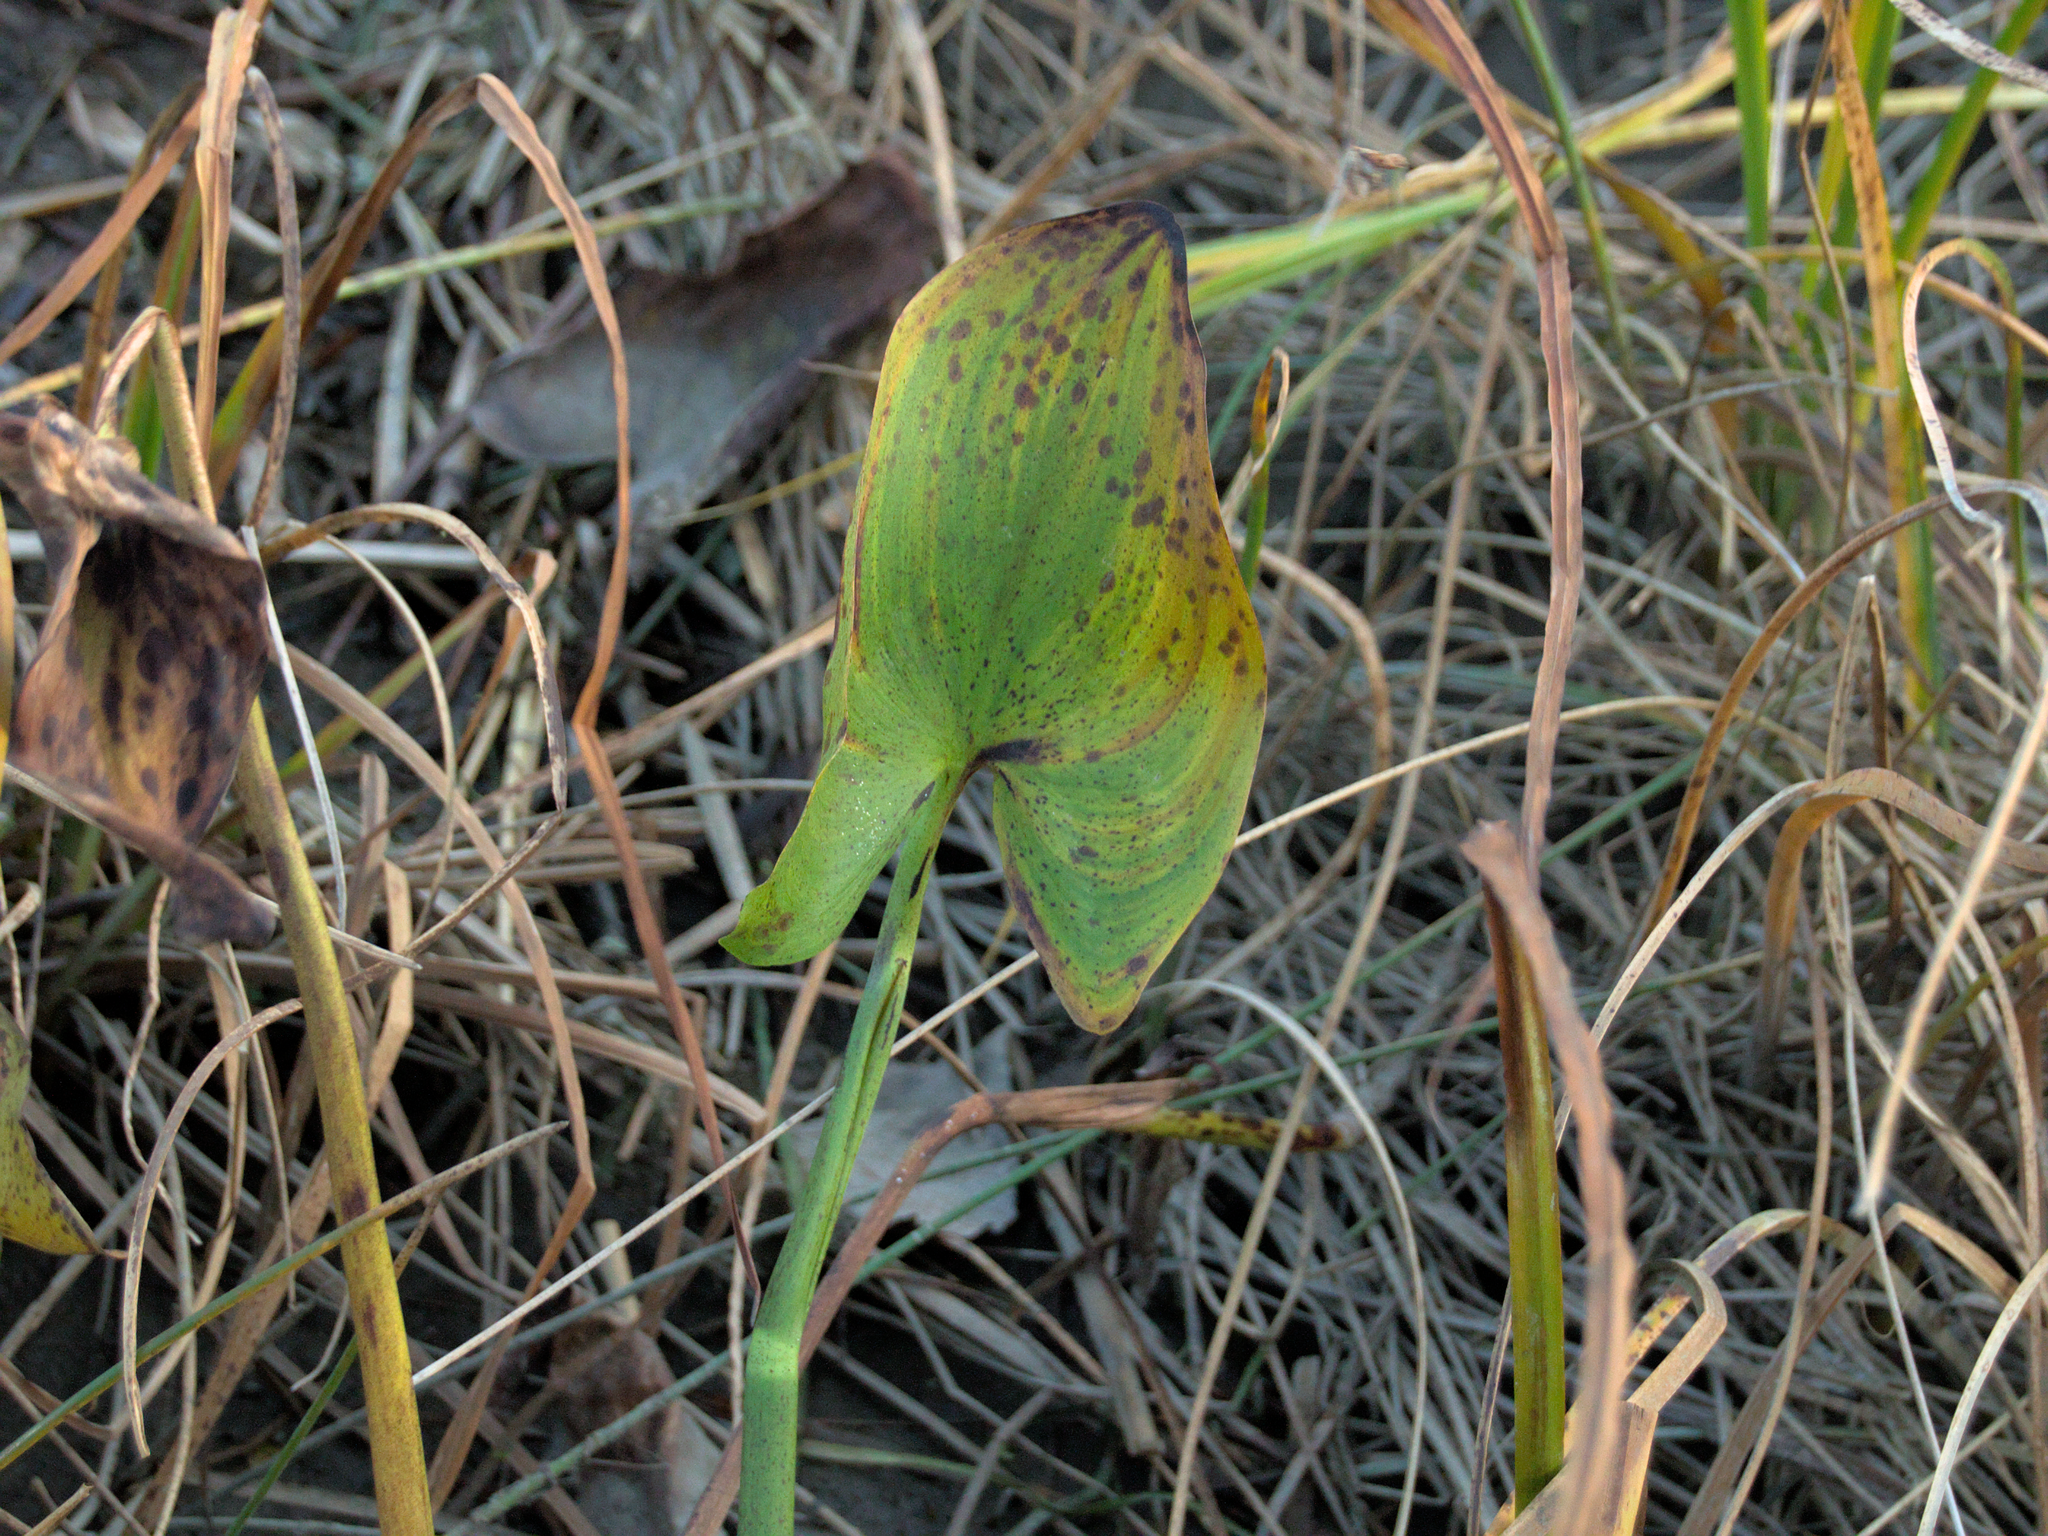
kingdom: Plantae
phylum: Tracheophyta
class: Liliopsida
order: Commelinales
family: Pontederiaceae
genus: Pontederia
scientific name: Pontederia cordata
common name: Pickerelweed
